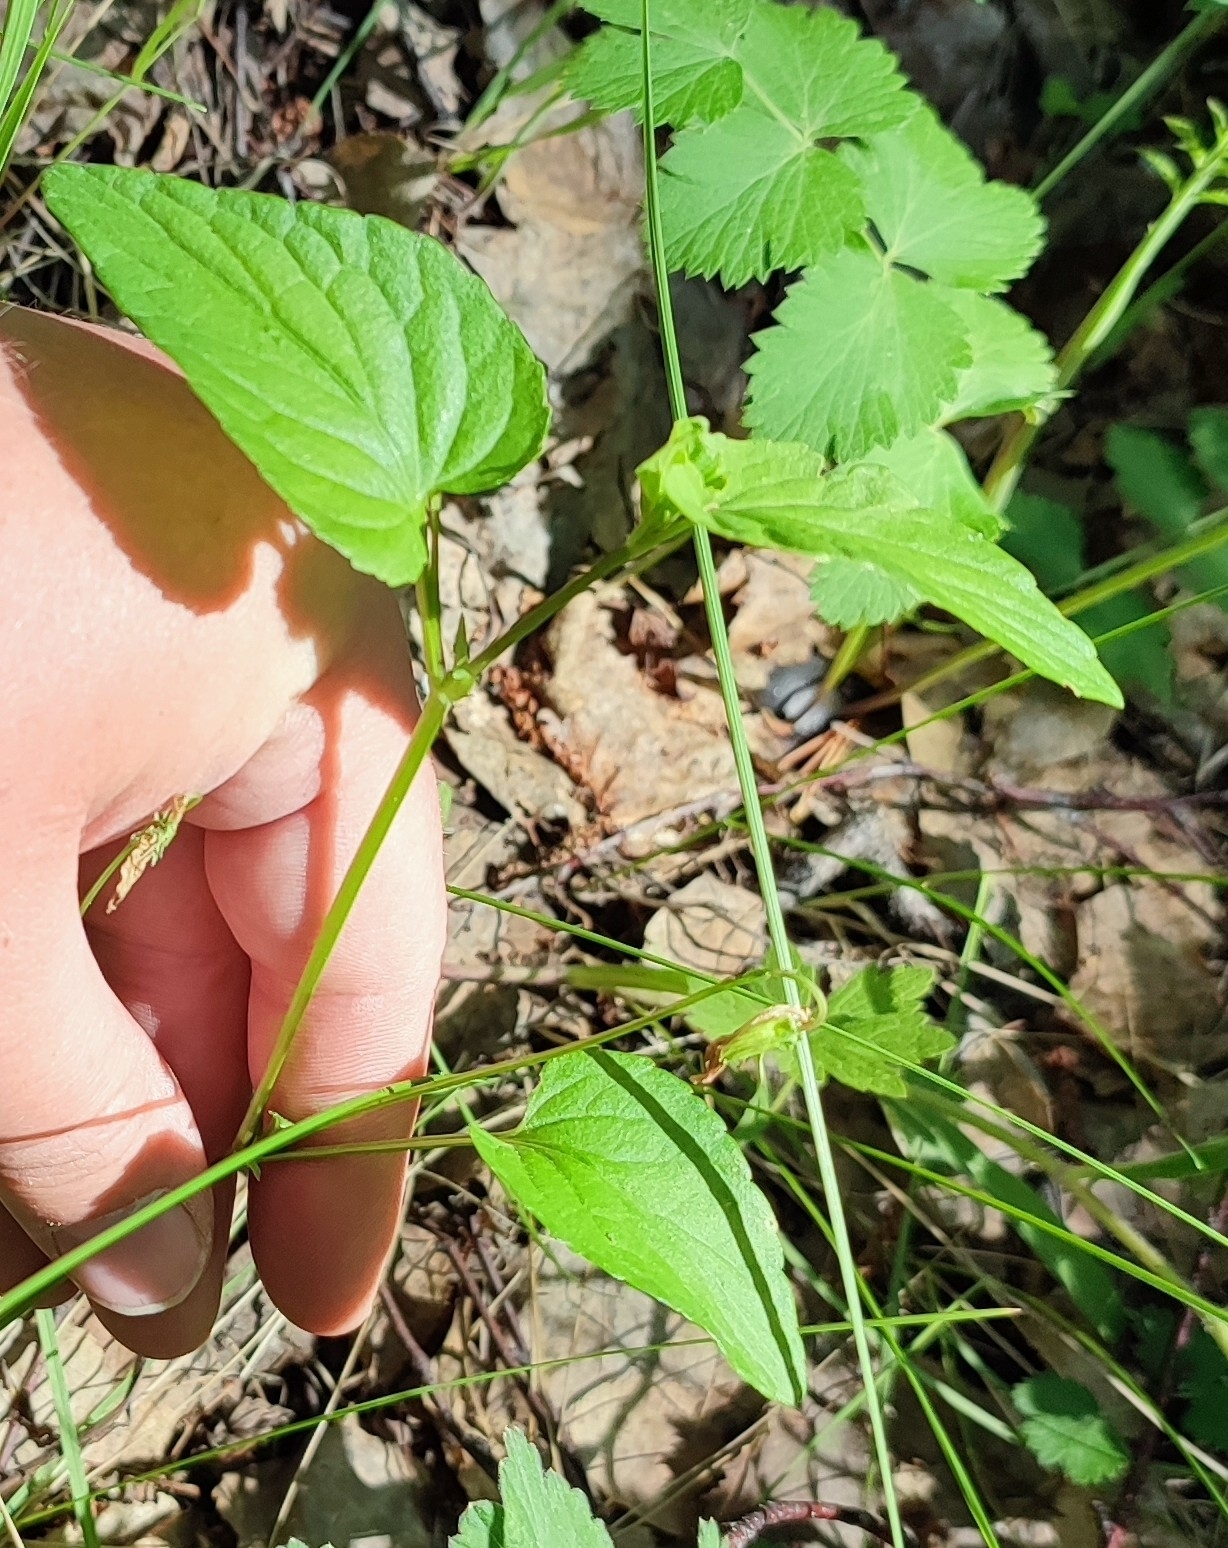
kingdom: Plantae
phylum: Tracheophyta
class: Magnoliopsida
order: Malpighiales
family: Violaceae
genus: Viola
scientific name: Viola
